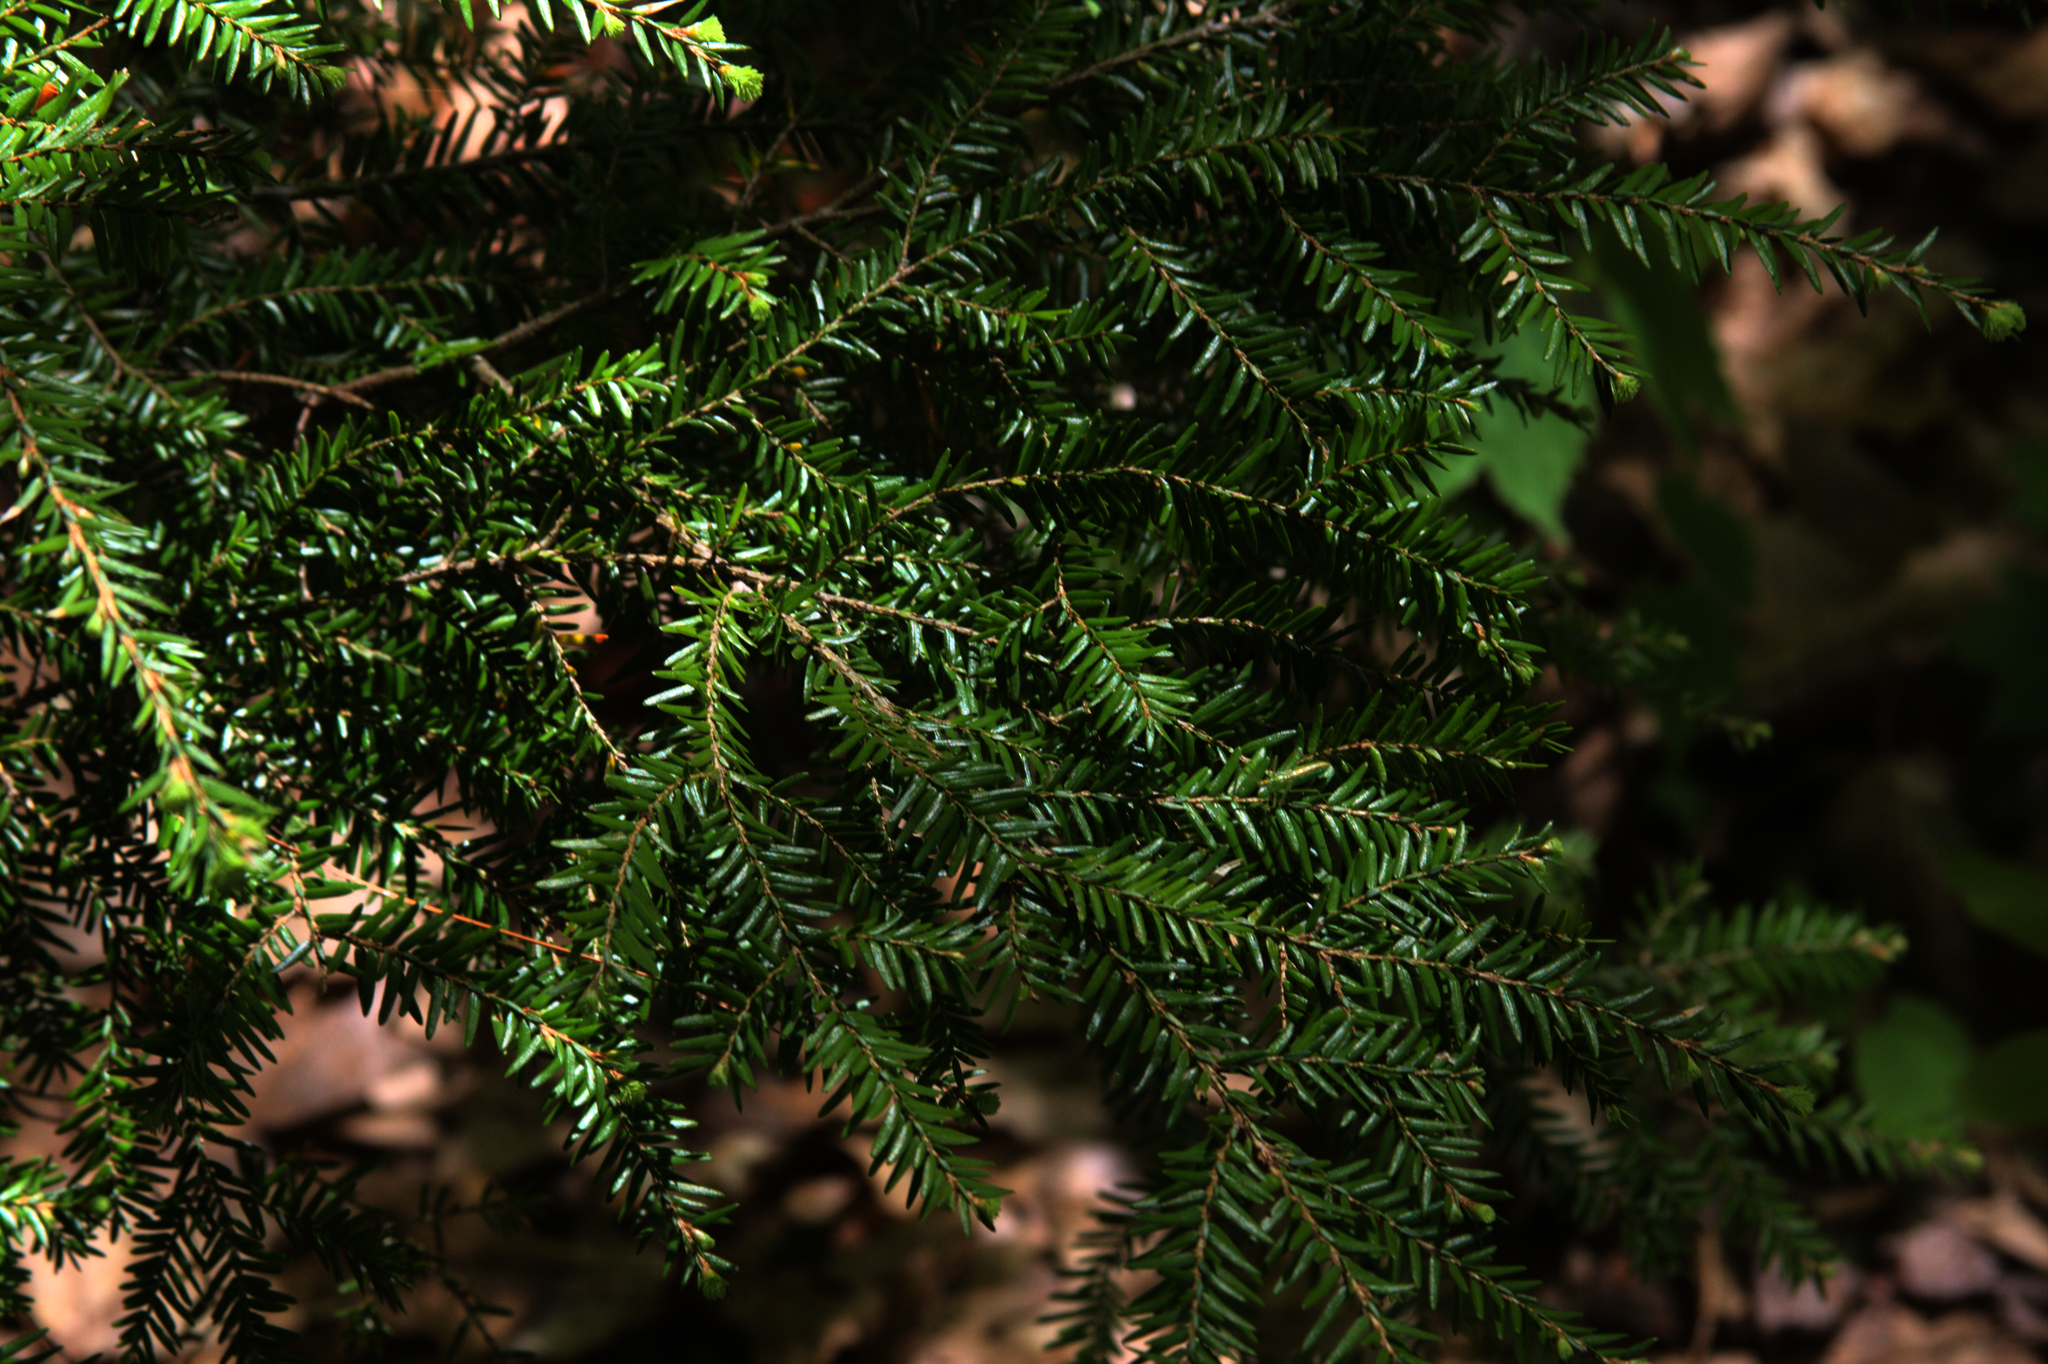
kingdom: Plantae
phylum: Tracheophyta
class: Pinopsida
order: Pinales
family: Pinaceae
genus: Tsuga
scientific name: Tsuga canadensis
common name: Eastern hemlock
